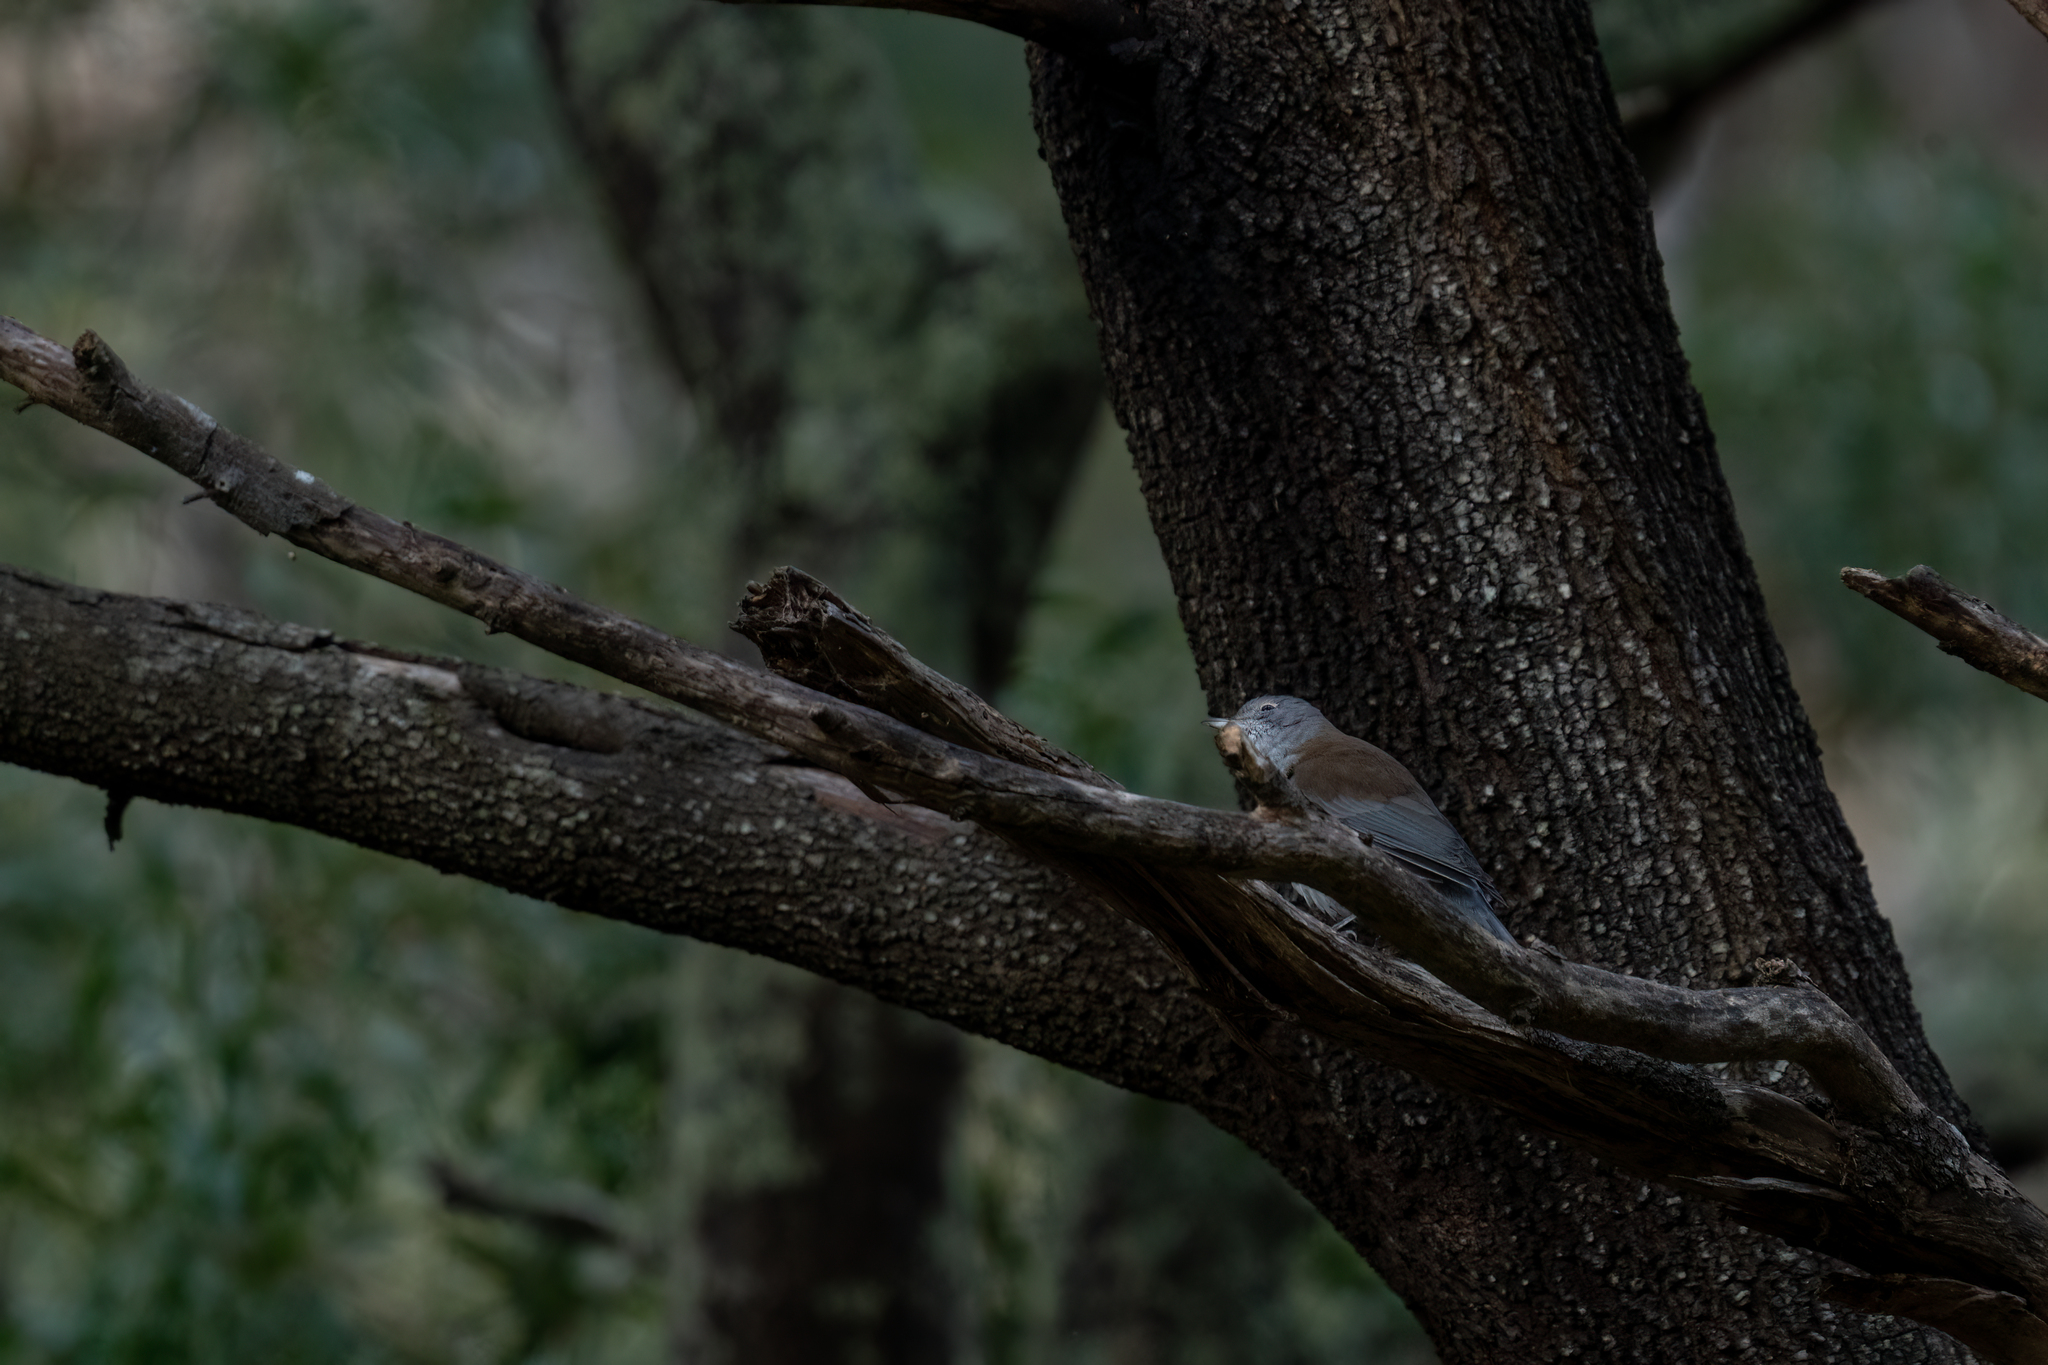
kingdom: Animalia
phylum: Chordata
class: Aves
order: Passeriformes
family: Pachycephalidae
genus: Colluricincla
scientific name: Colluricincla harmonica
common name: Grey shrikethrush
